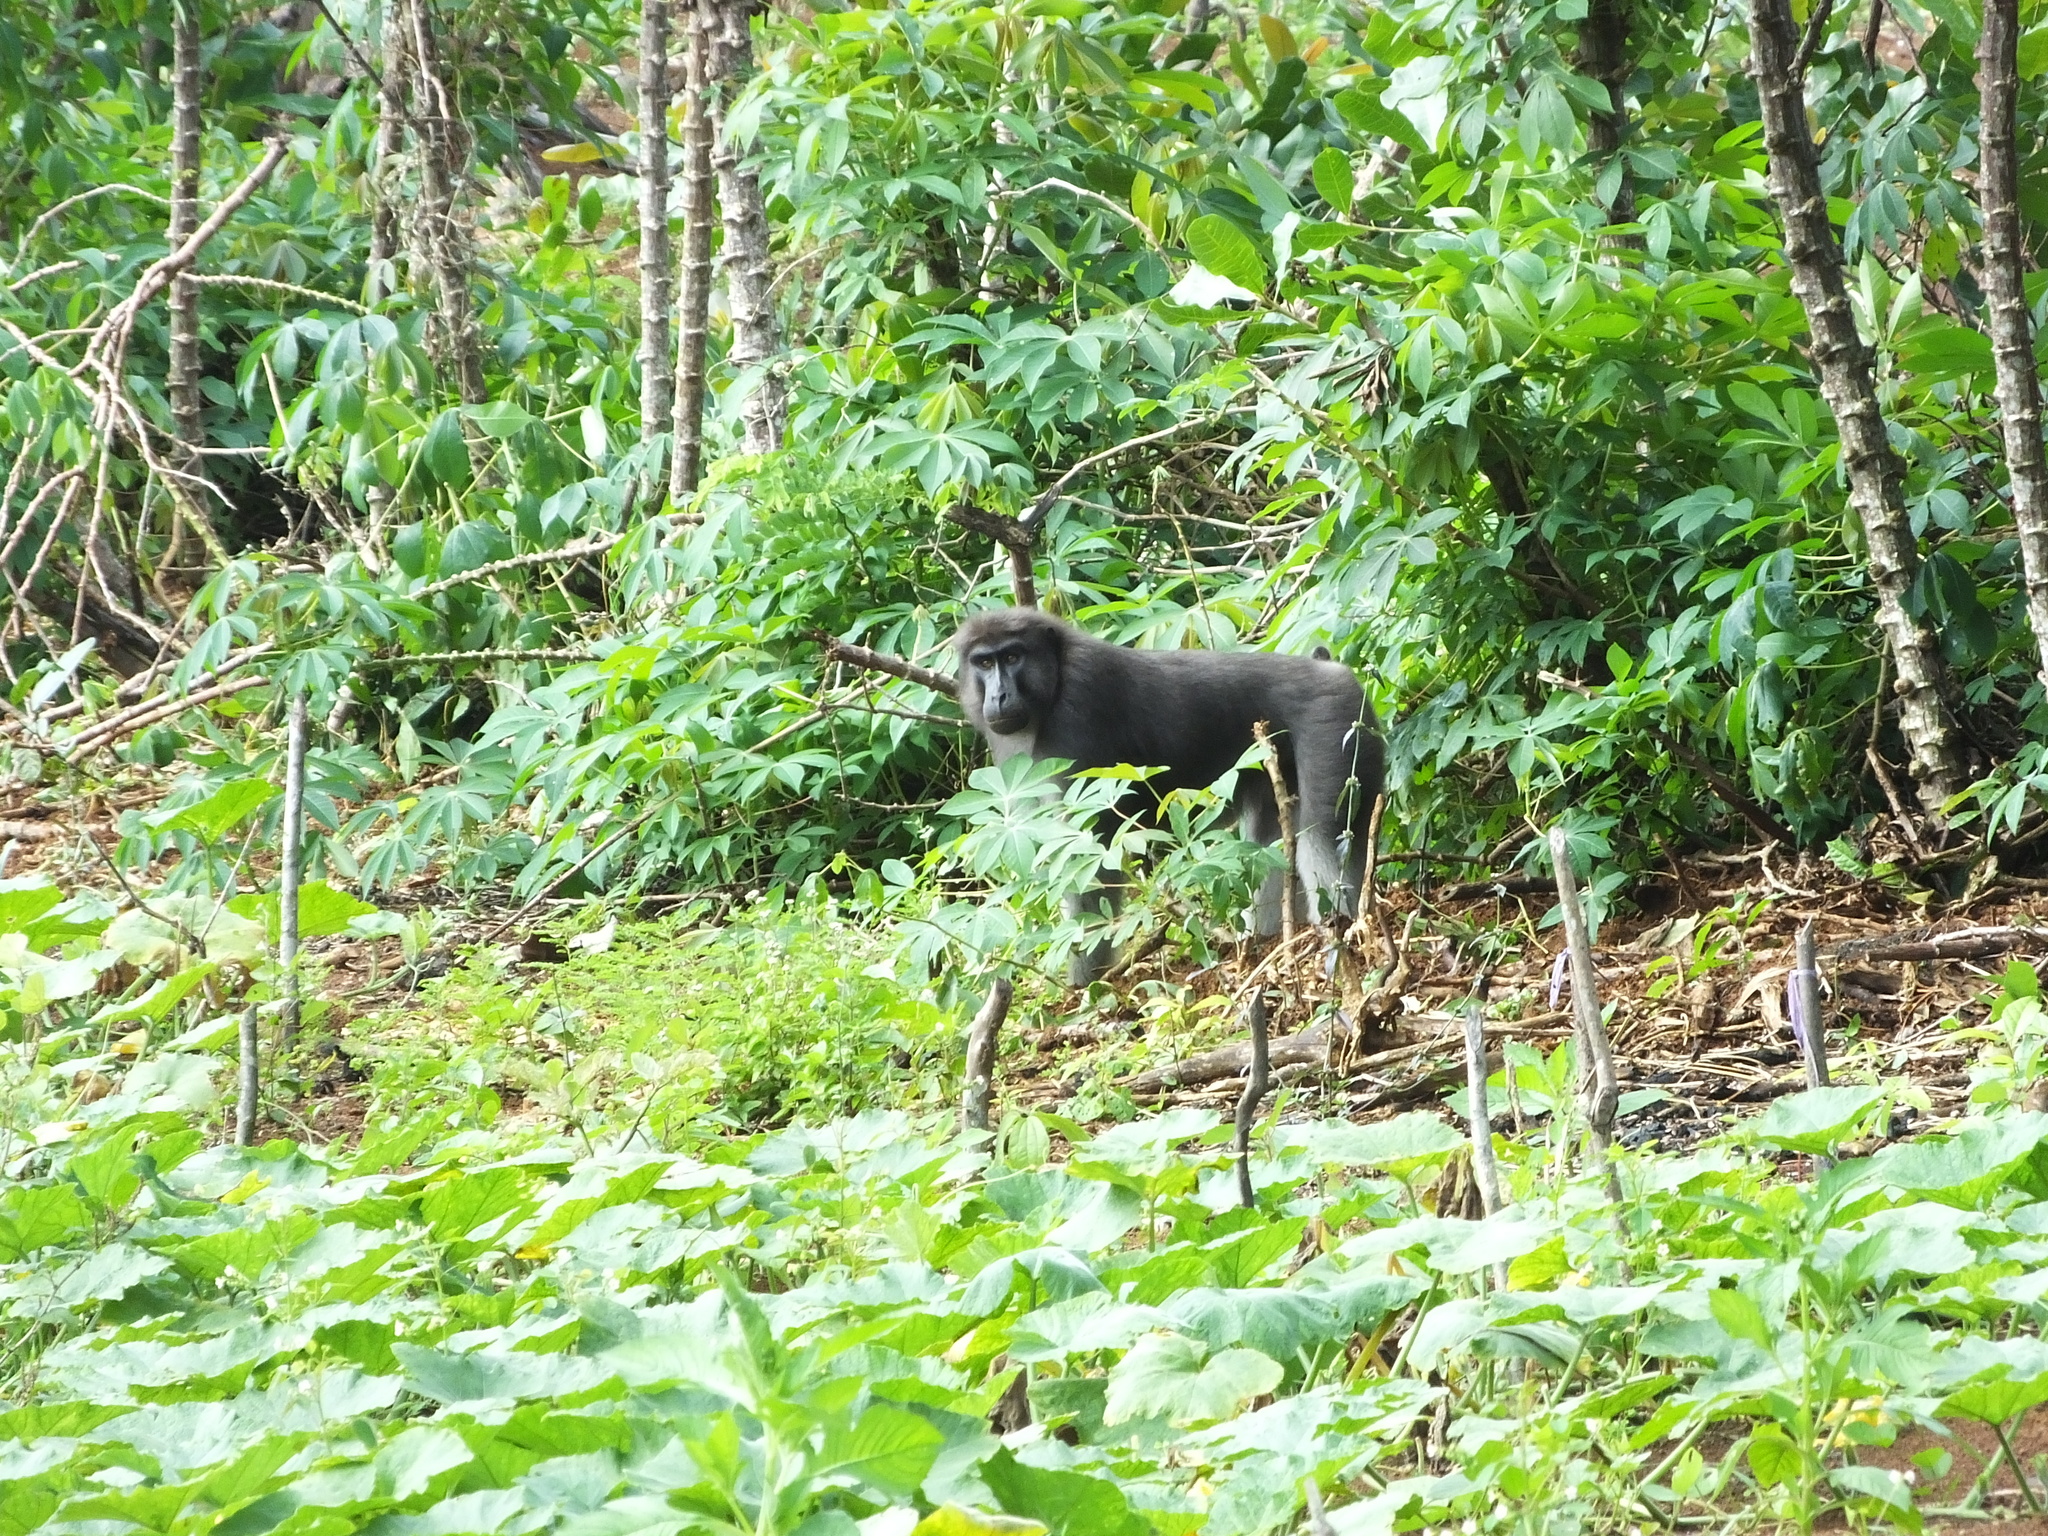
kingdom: Animalia
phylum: Chordata
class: Mammalia
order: Primates
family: Cercopithecidae
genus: Macaca
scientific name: Macaca ochreata
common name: Booted macaque
